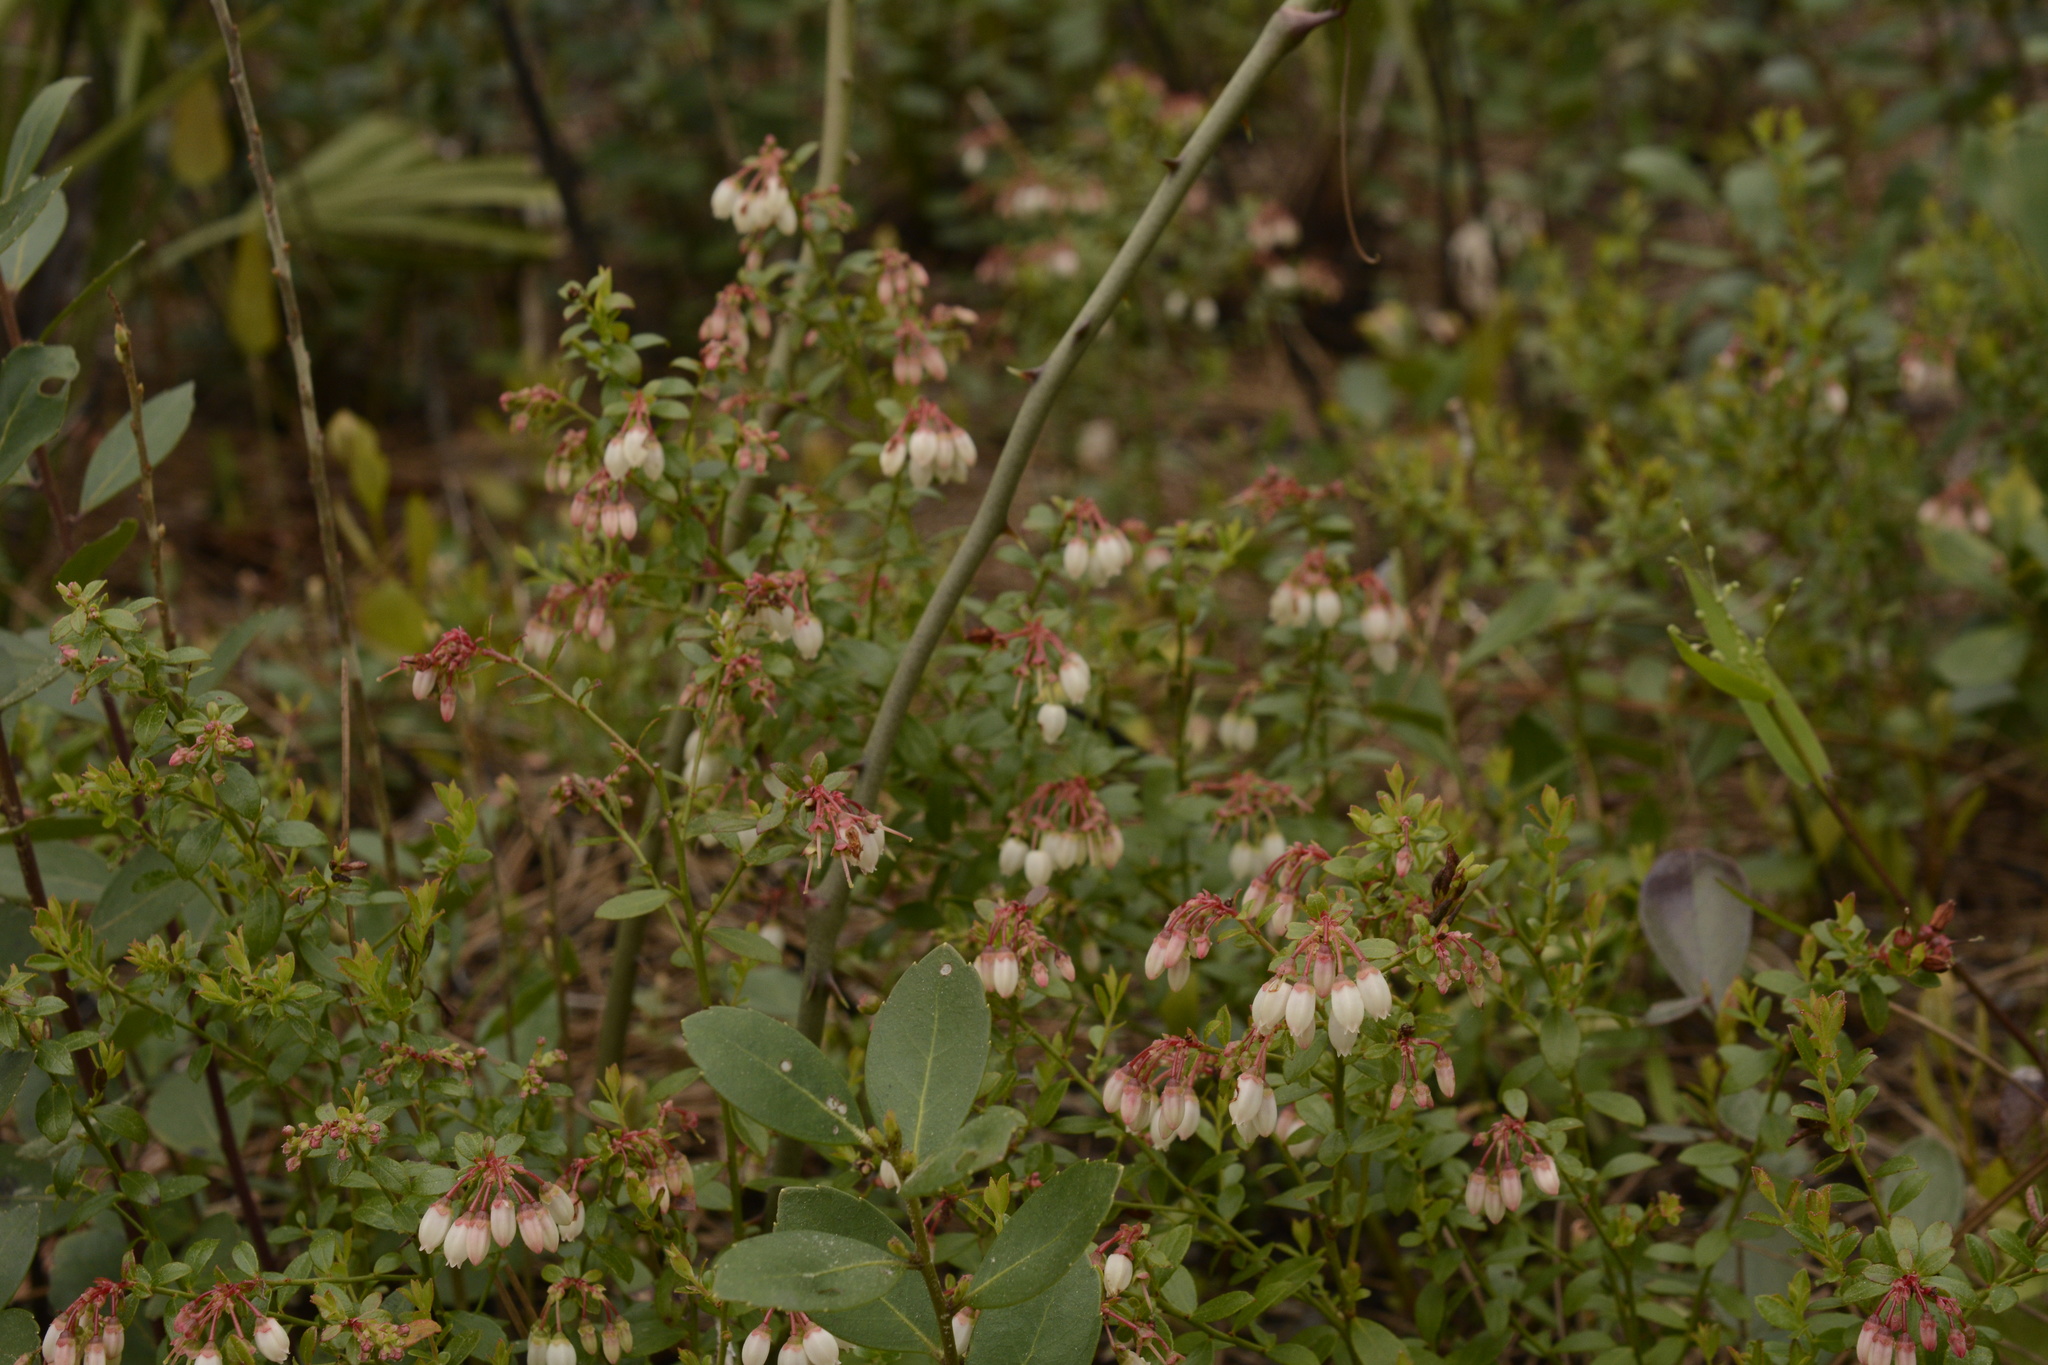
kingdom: Plantae
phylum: Tracheophyta
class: Magnoliopsida
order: Ericales
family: Ericaceae
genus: Vaccinium
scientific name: Vaccinium myrsinites
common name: Evergreen blueberry
